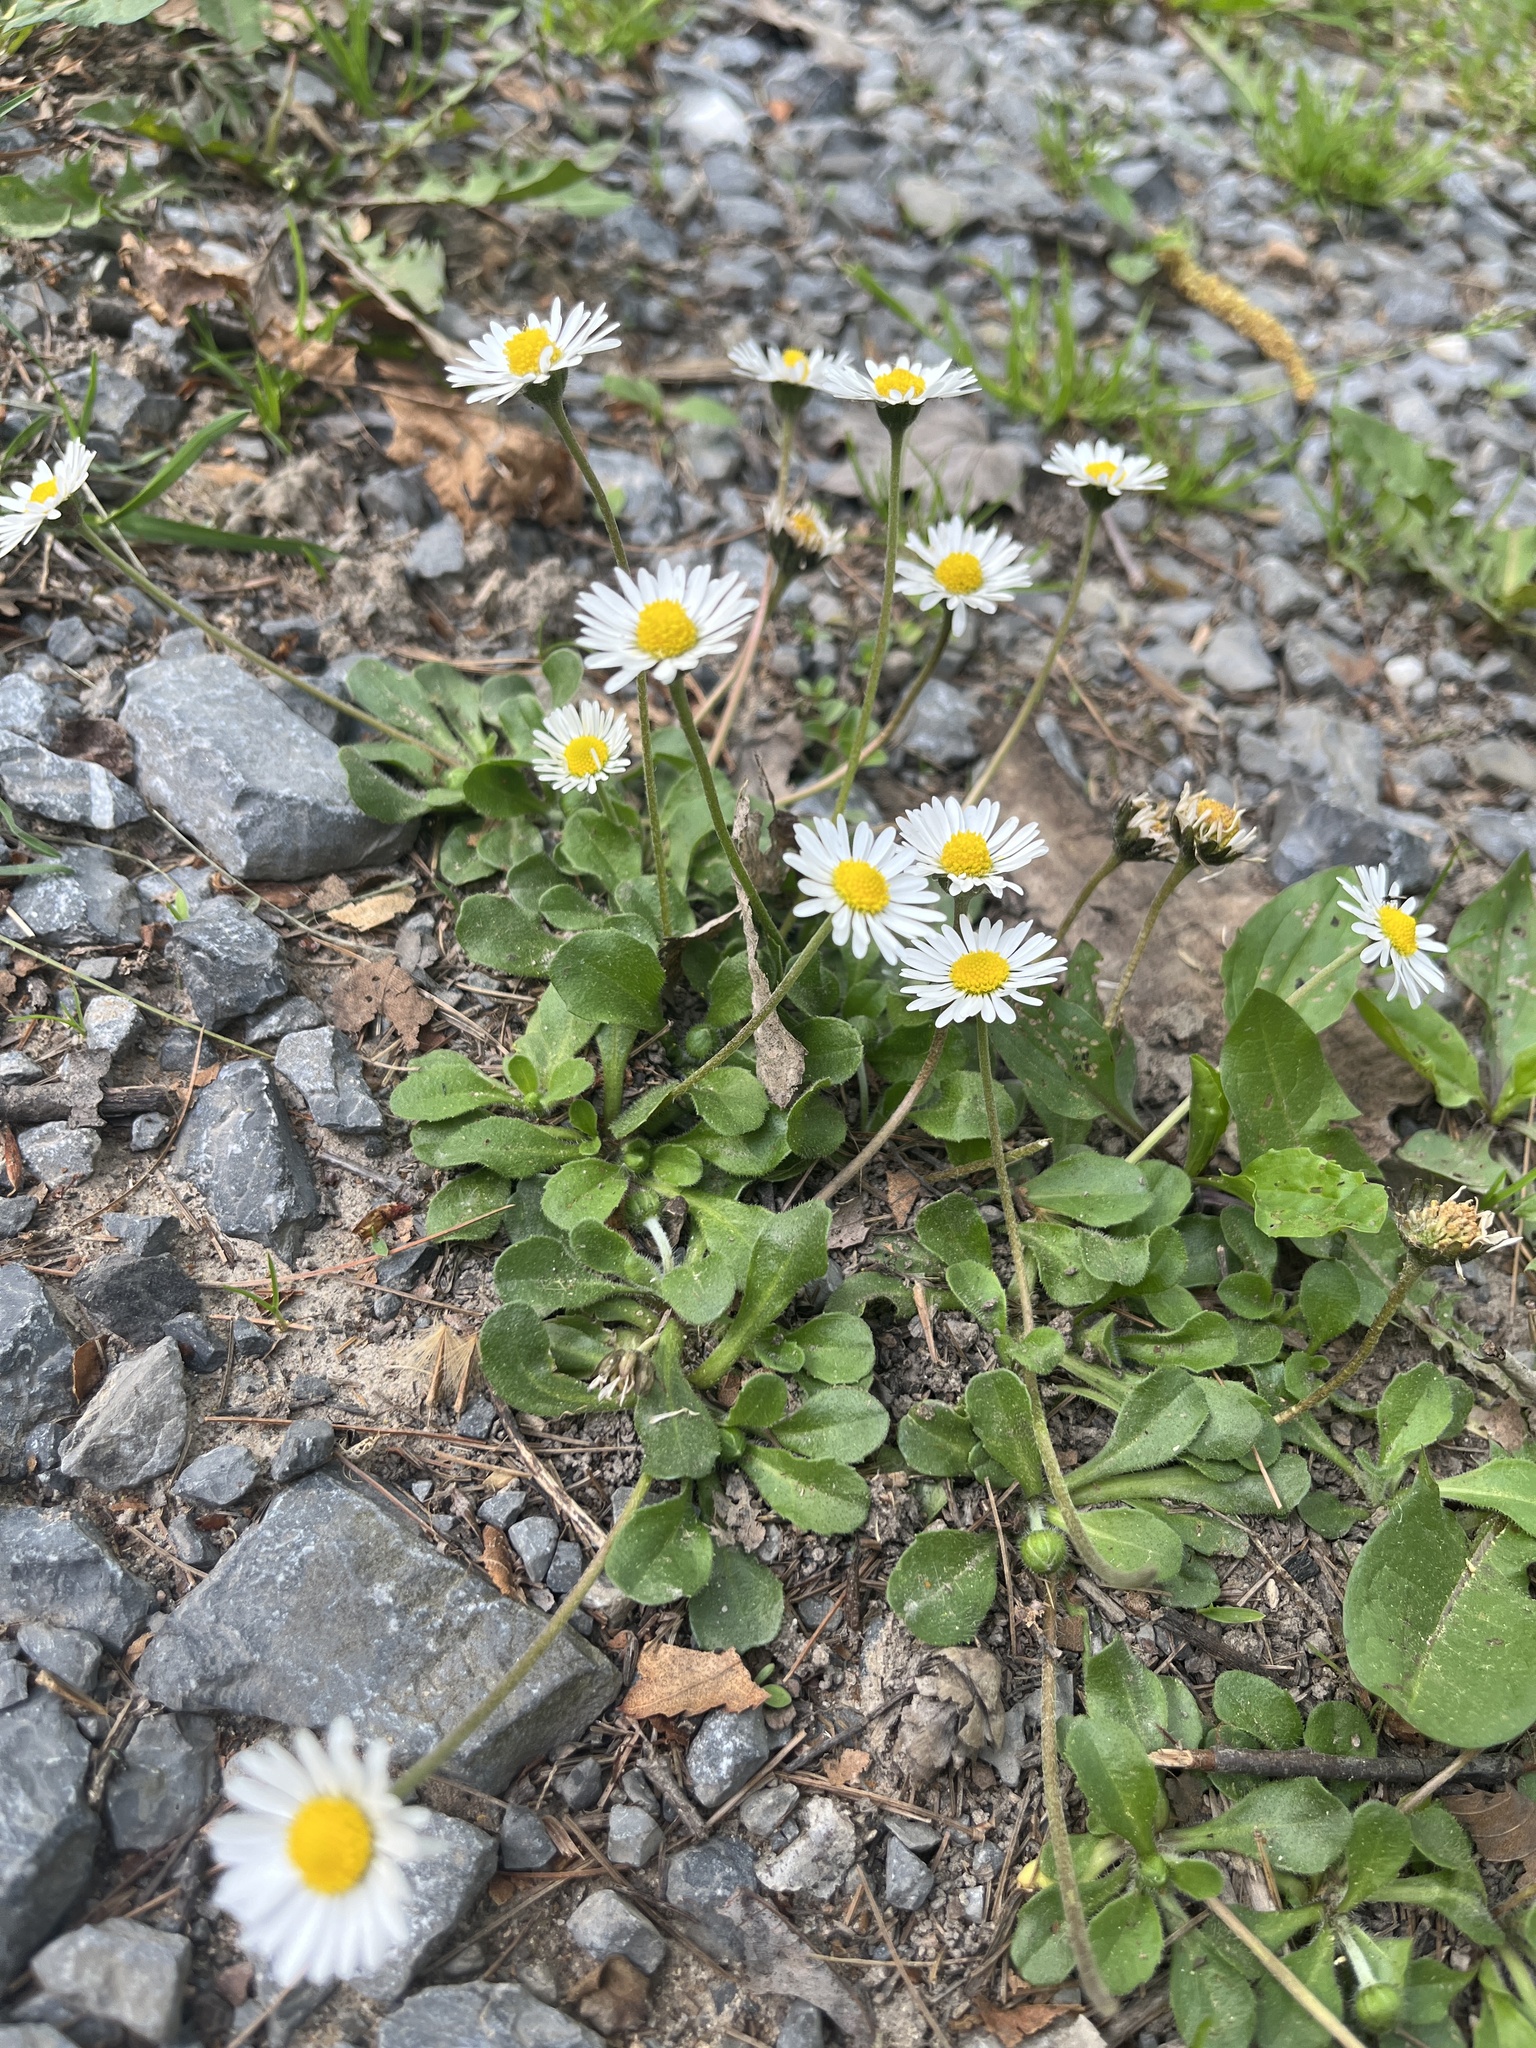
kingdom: Plantae
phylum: Tracheophyta
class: Magnoliopsida
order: Asterales
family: Asteraceae
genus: Bellis
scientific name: Bellis perennis
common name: Lawndaisy
